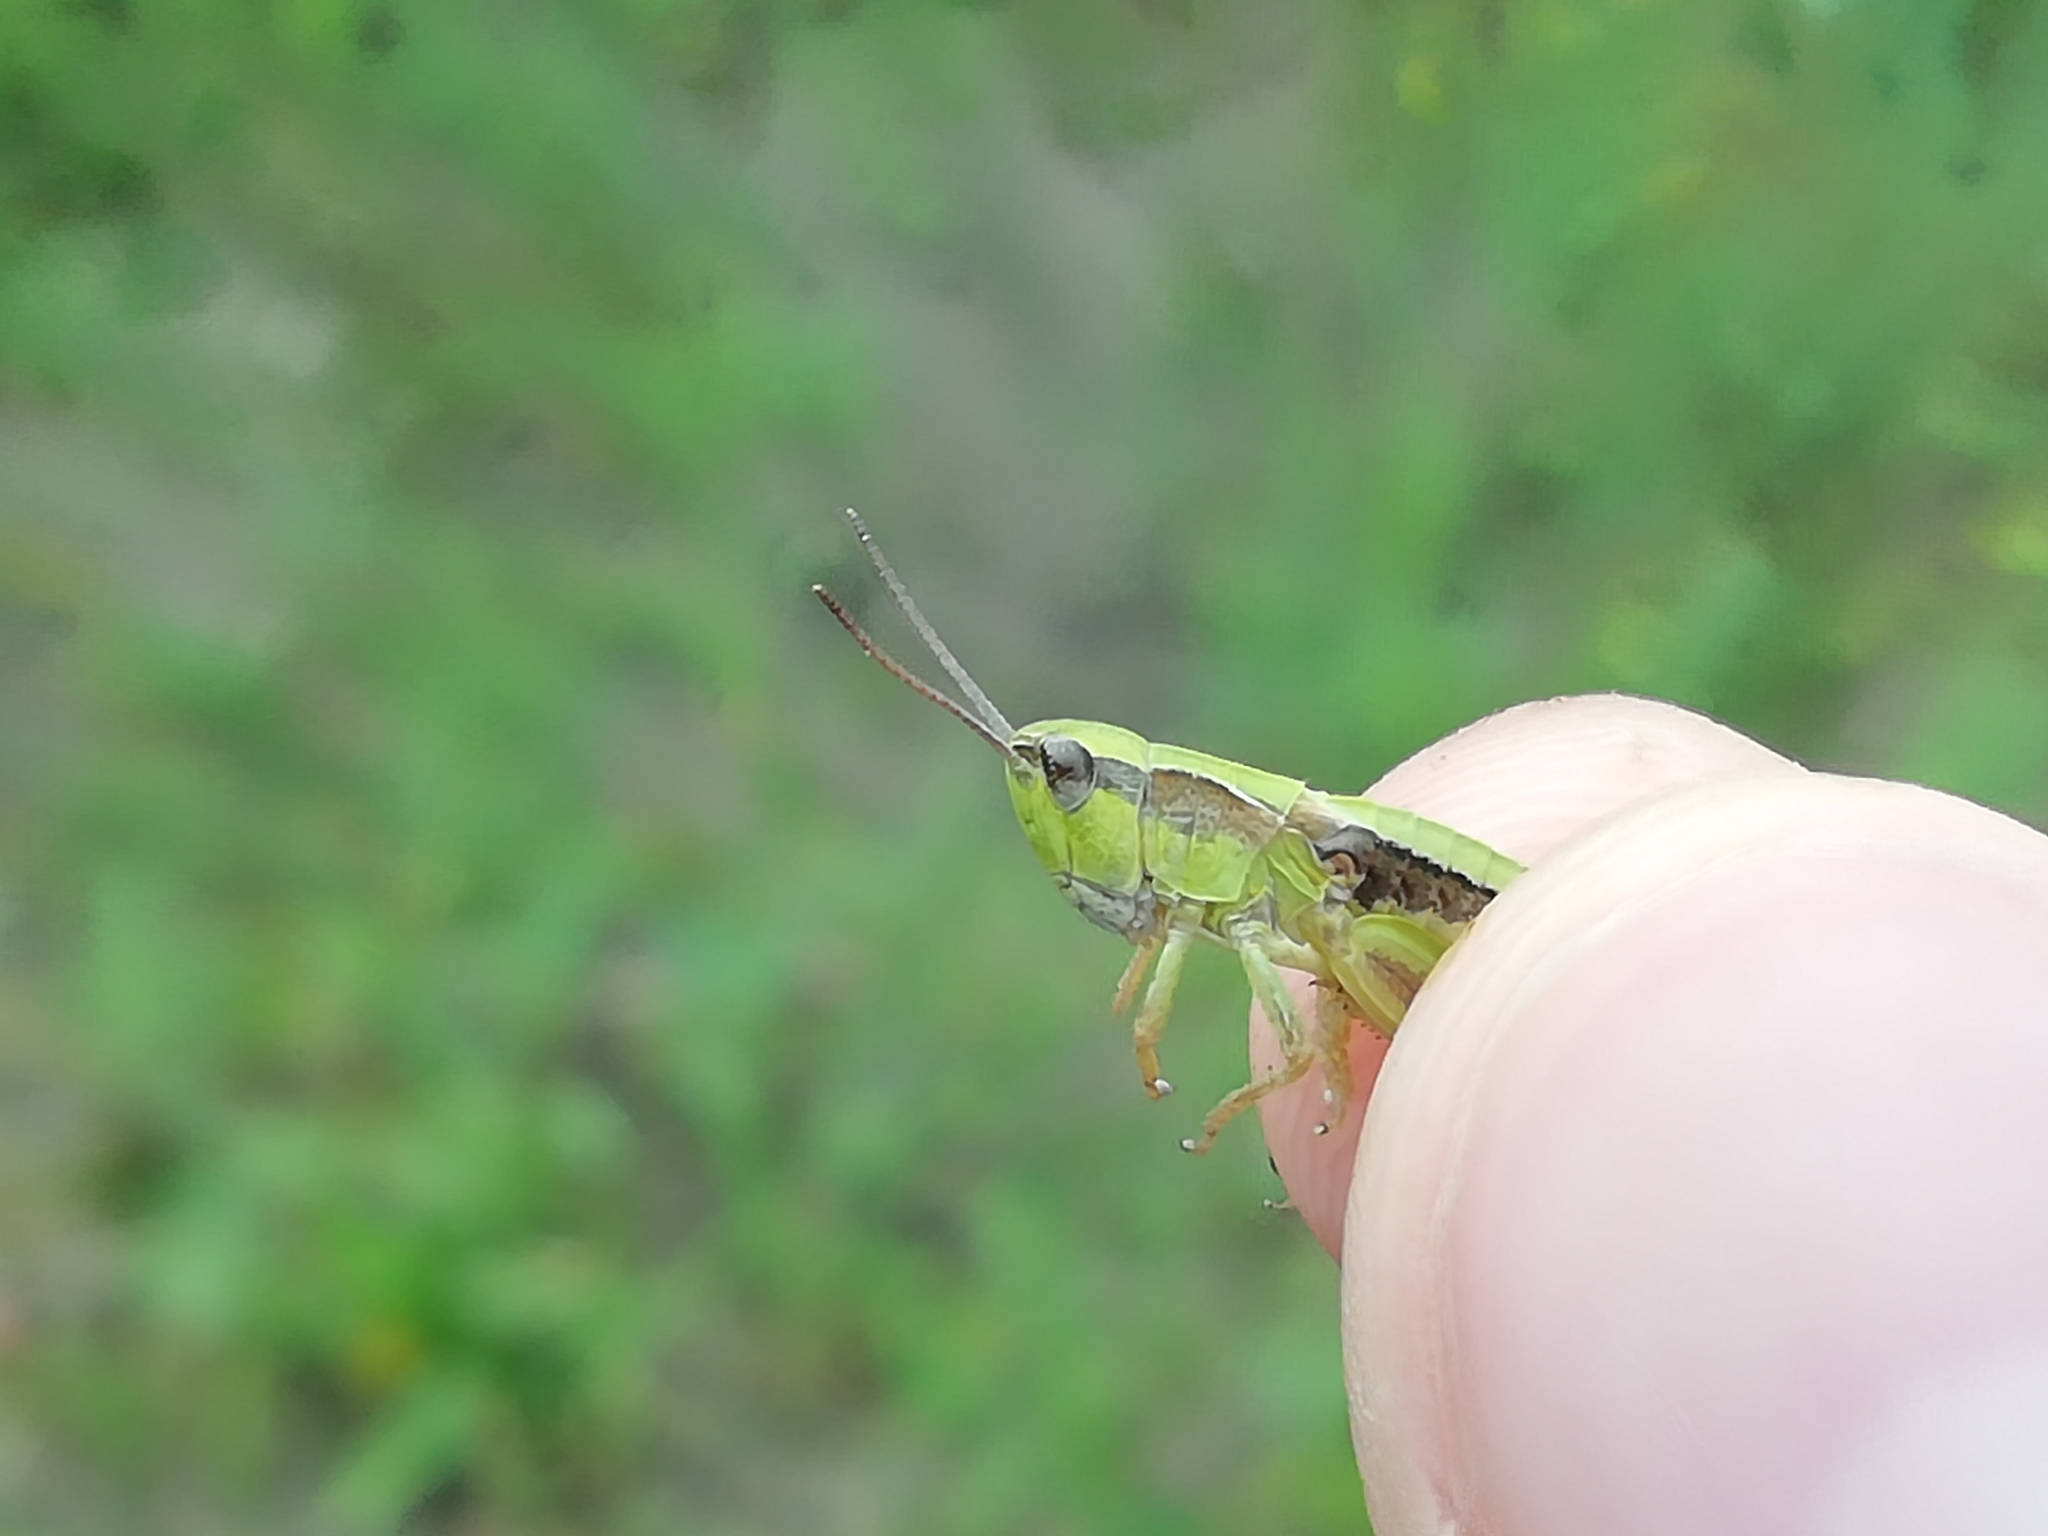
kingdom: Animalia
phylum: Arthropoda
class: Insecta
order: Orthoptera
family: Acrididae
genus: Chorthippus
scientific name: Chorthippus fallax
